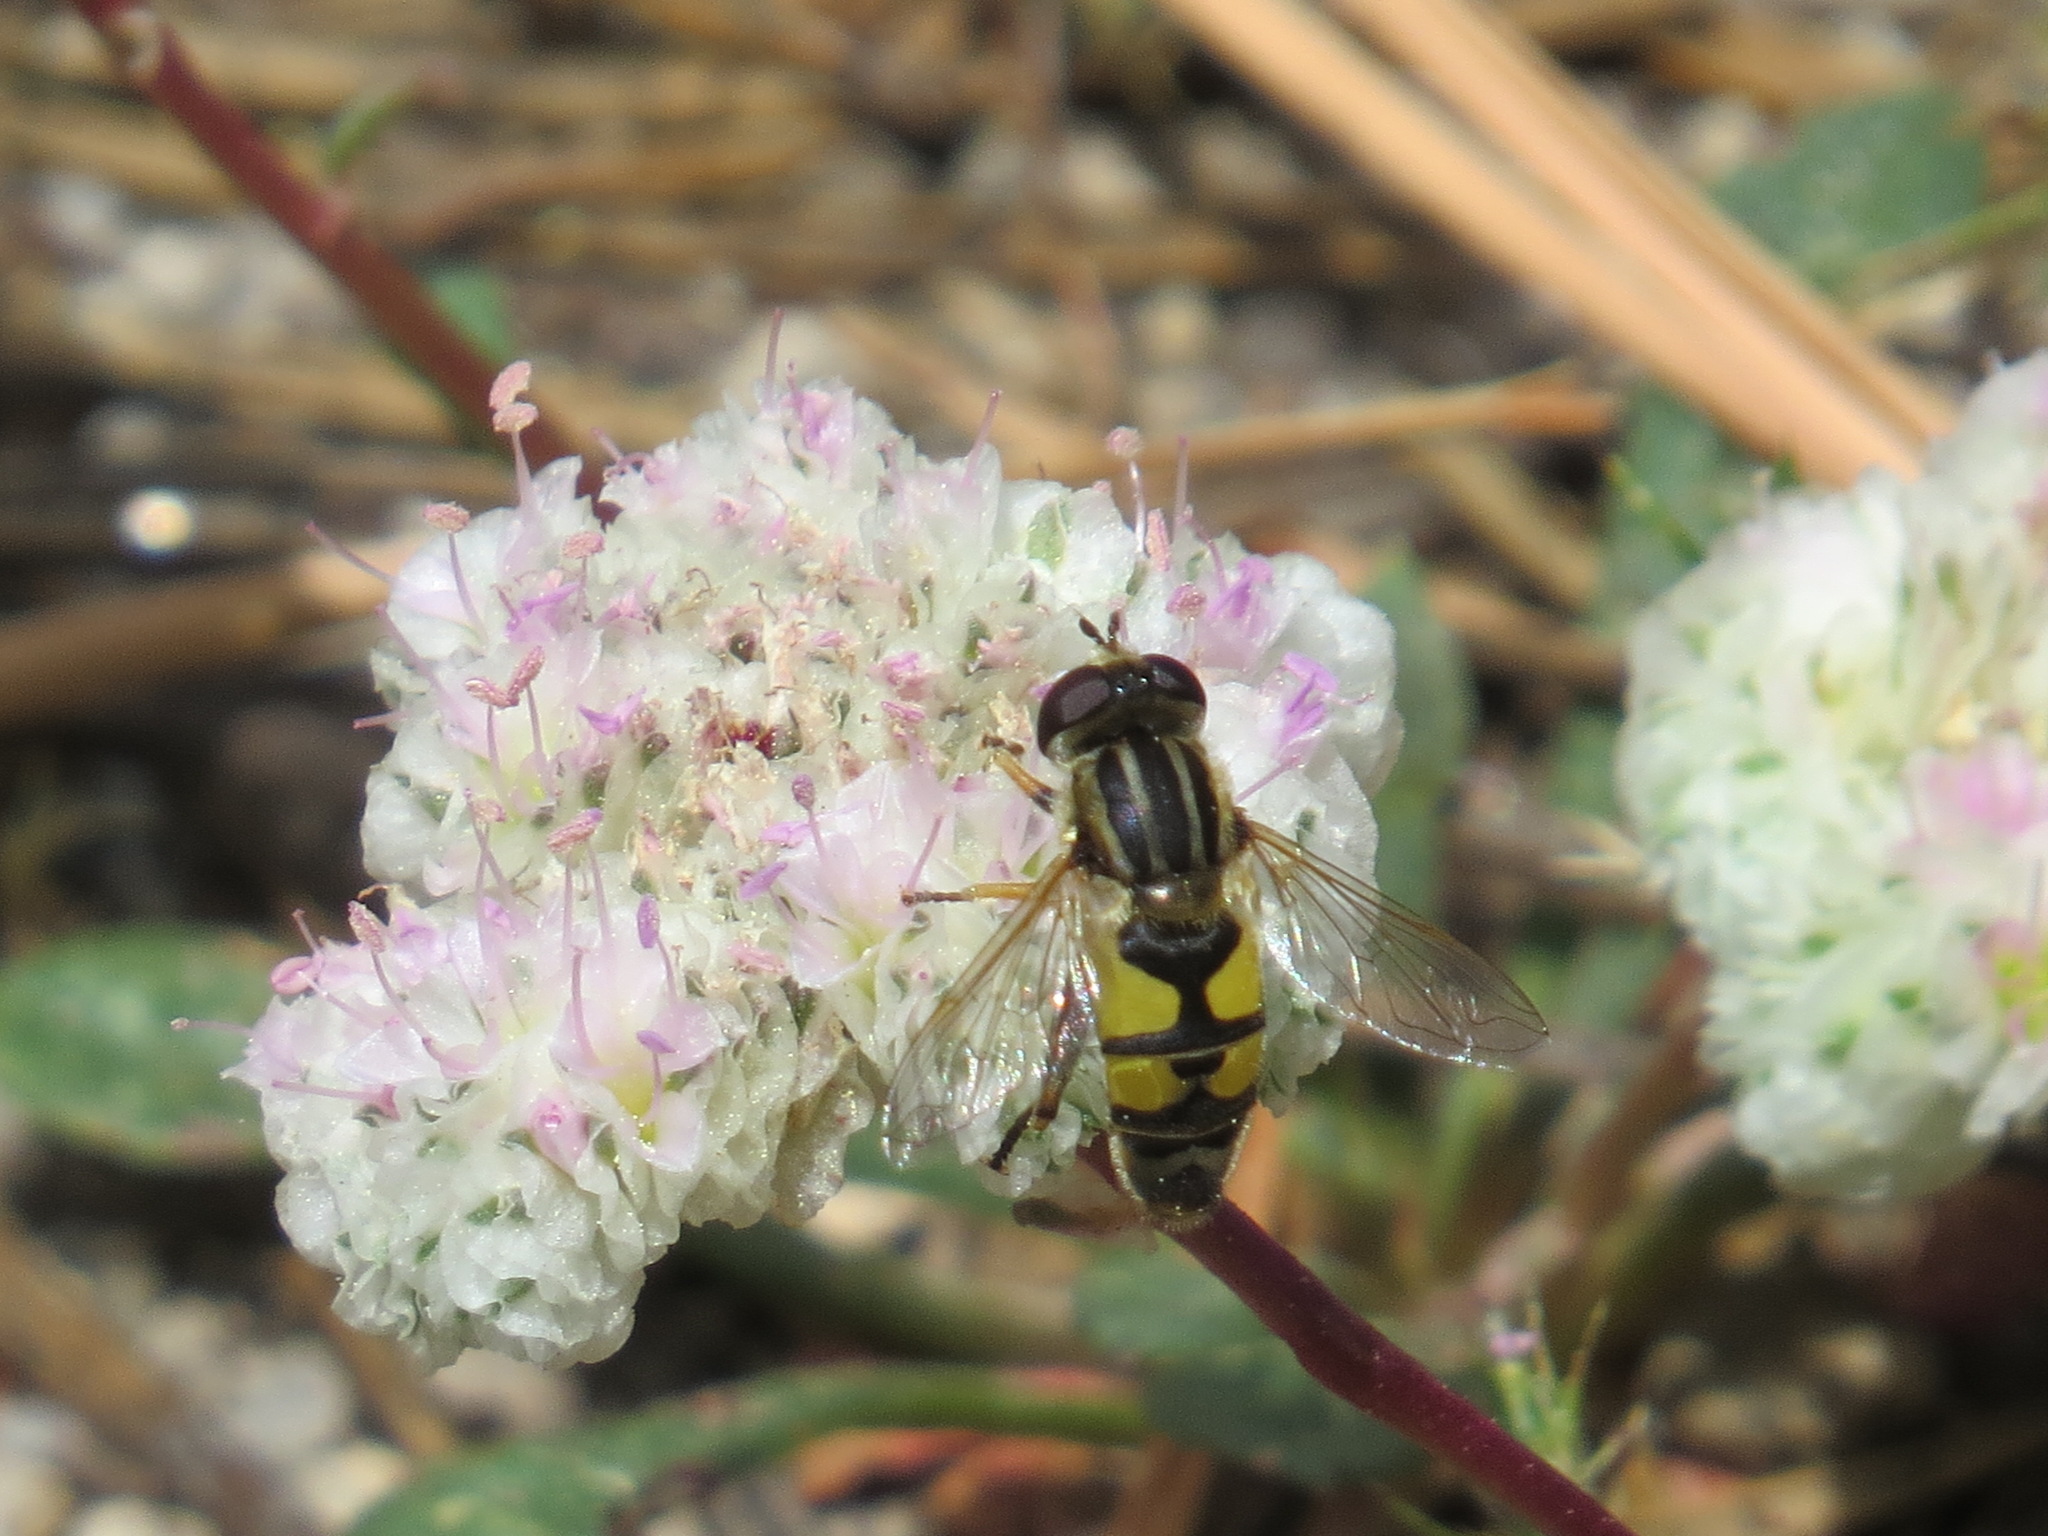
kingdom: Animalia
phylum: Arthropoda
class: Insecta
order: Diptera
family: Syrphidae
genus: Helophilus
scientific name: Helophilus latifrons
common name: Broad-headed marsh fly
